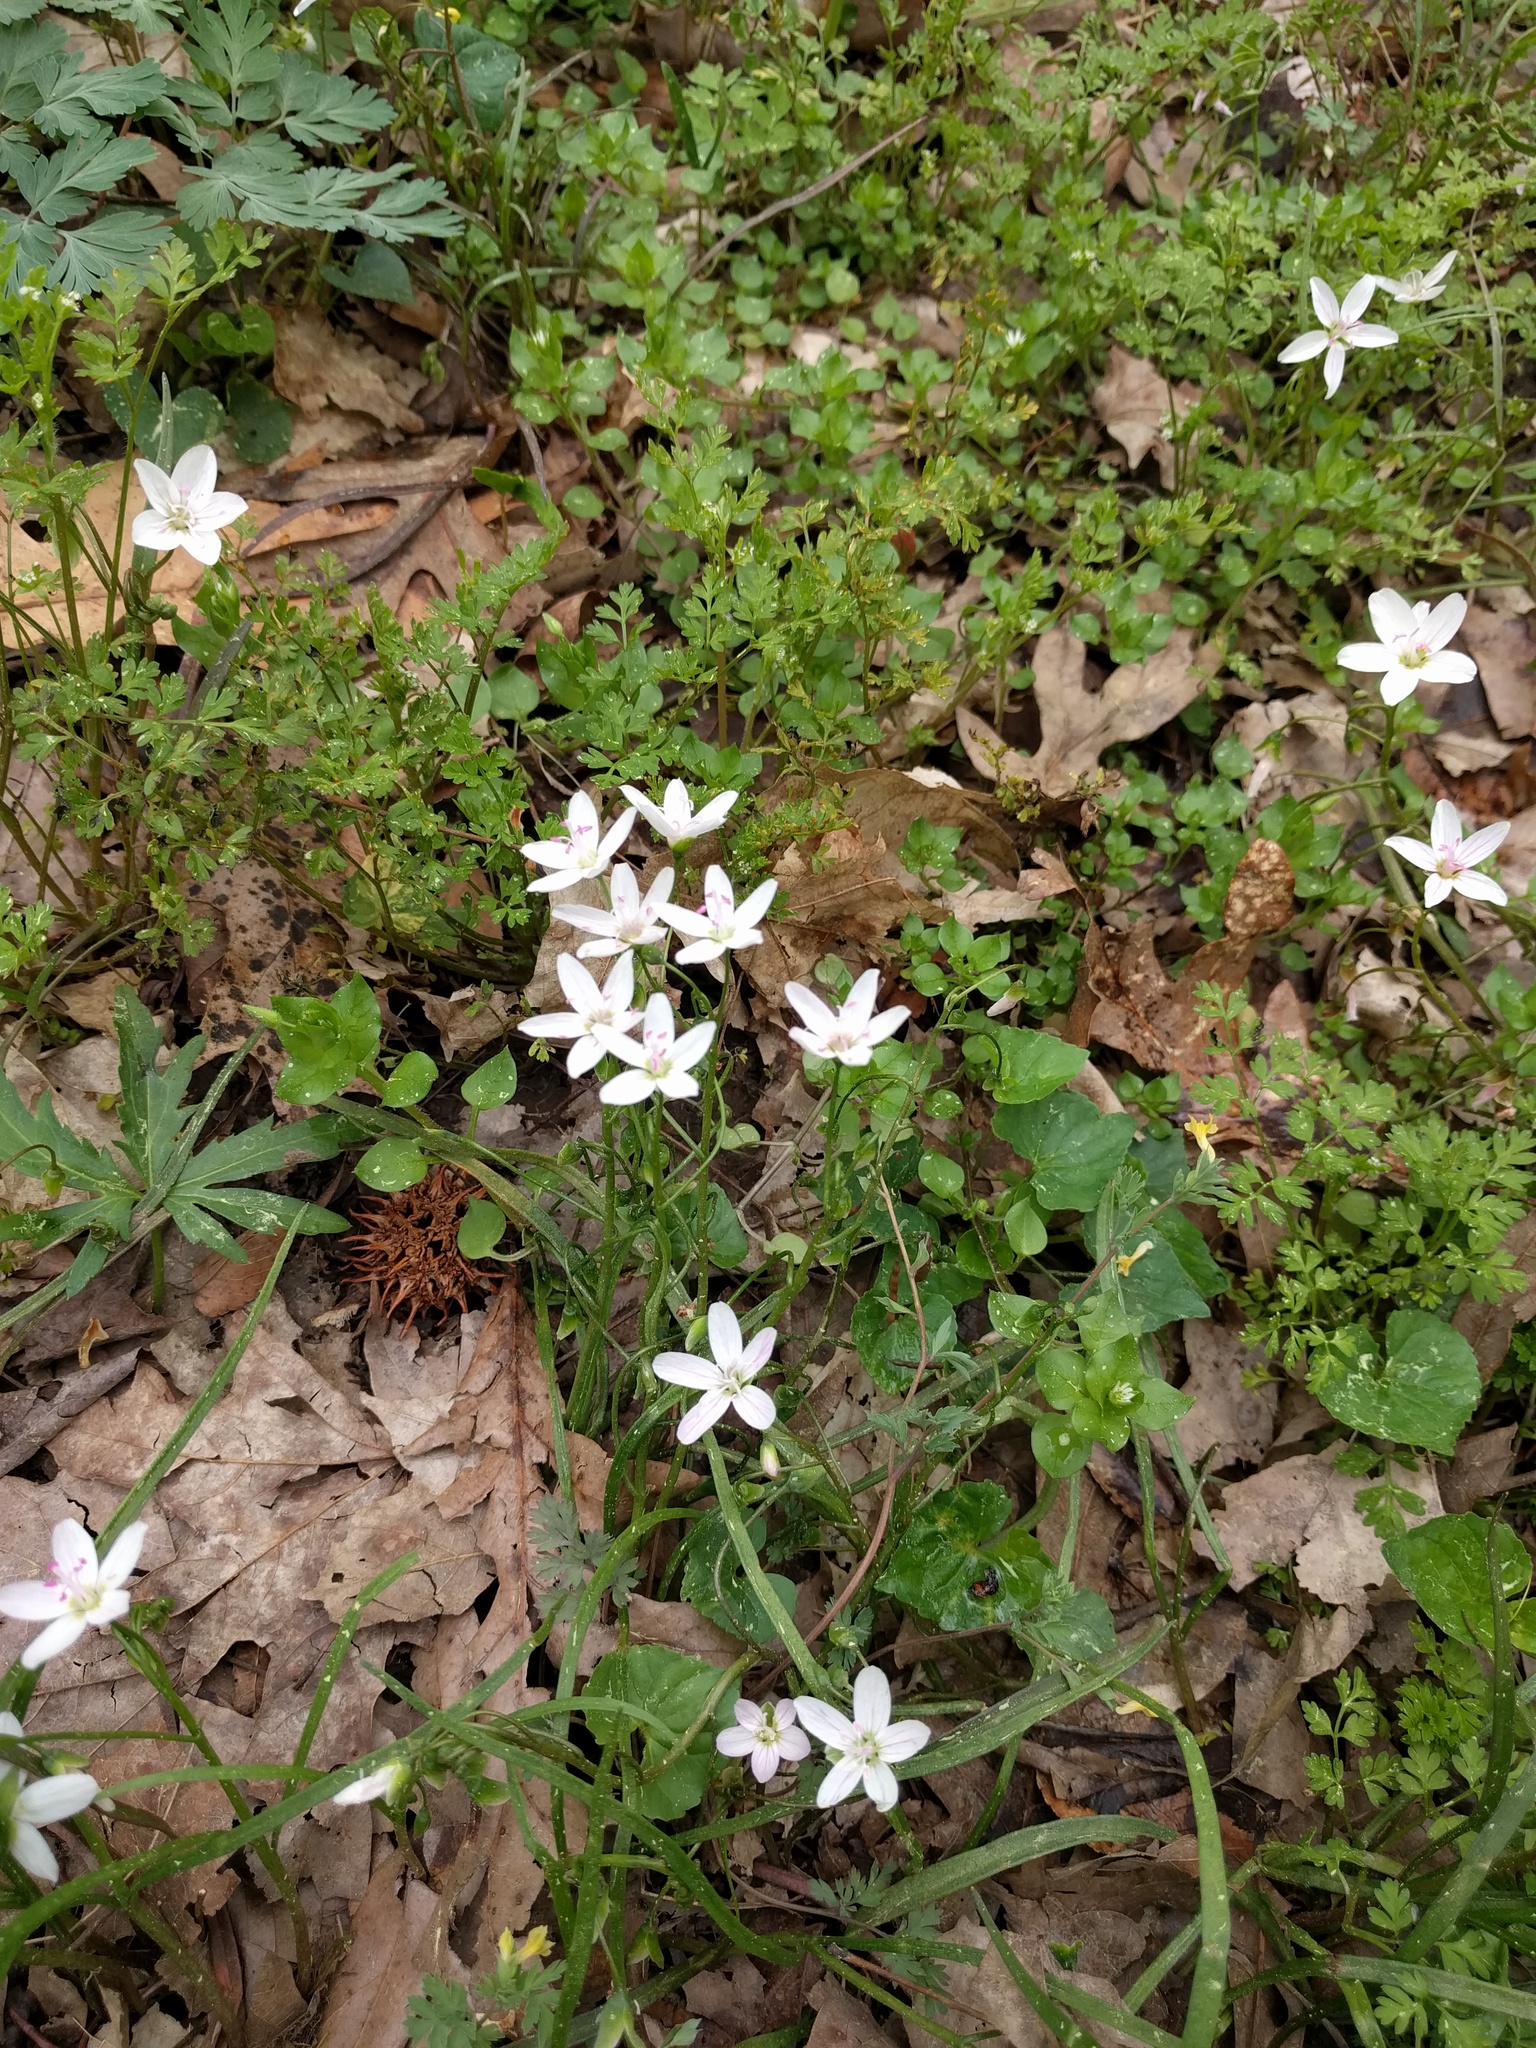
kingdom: Plantae
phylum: Tracheophyta
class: Magnoliopsida
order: Caryophyllales
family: Montiaceae
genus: Claytonia
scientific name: Claytonia virginica
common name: Virginia springbeauty
